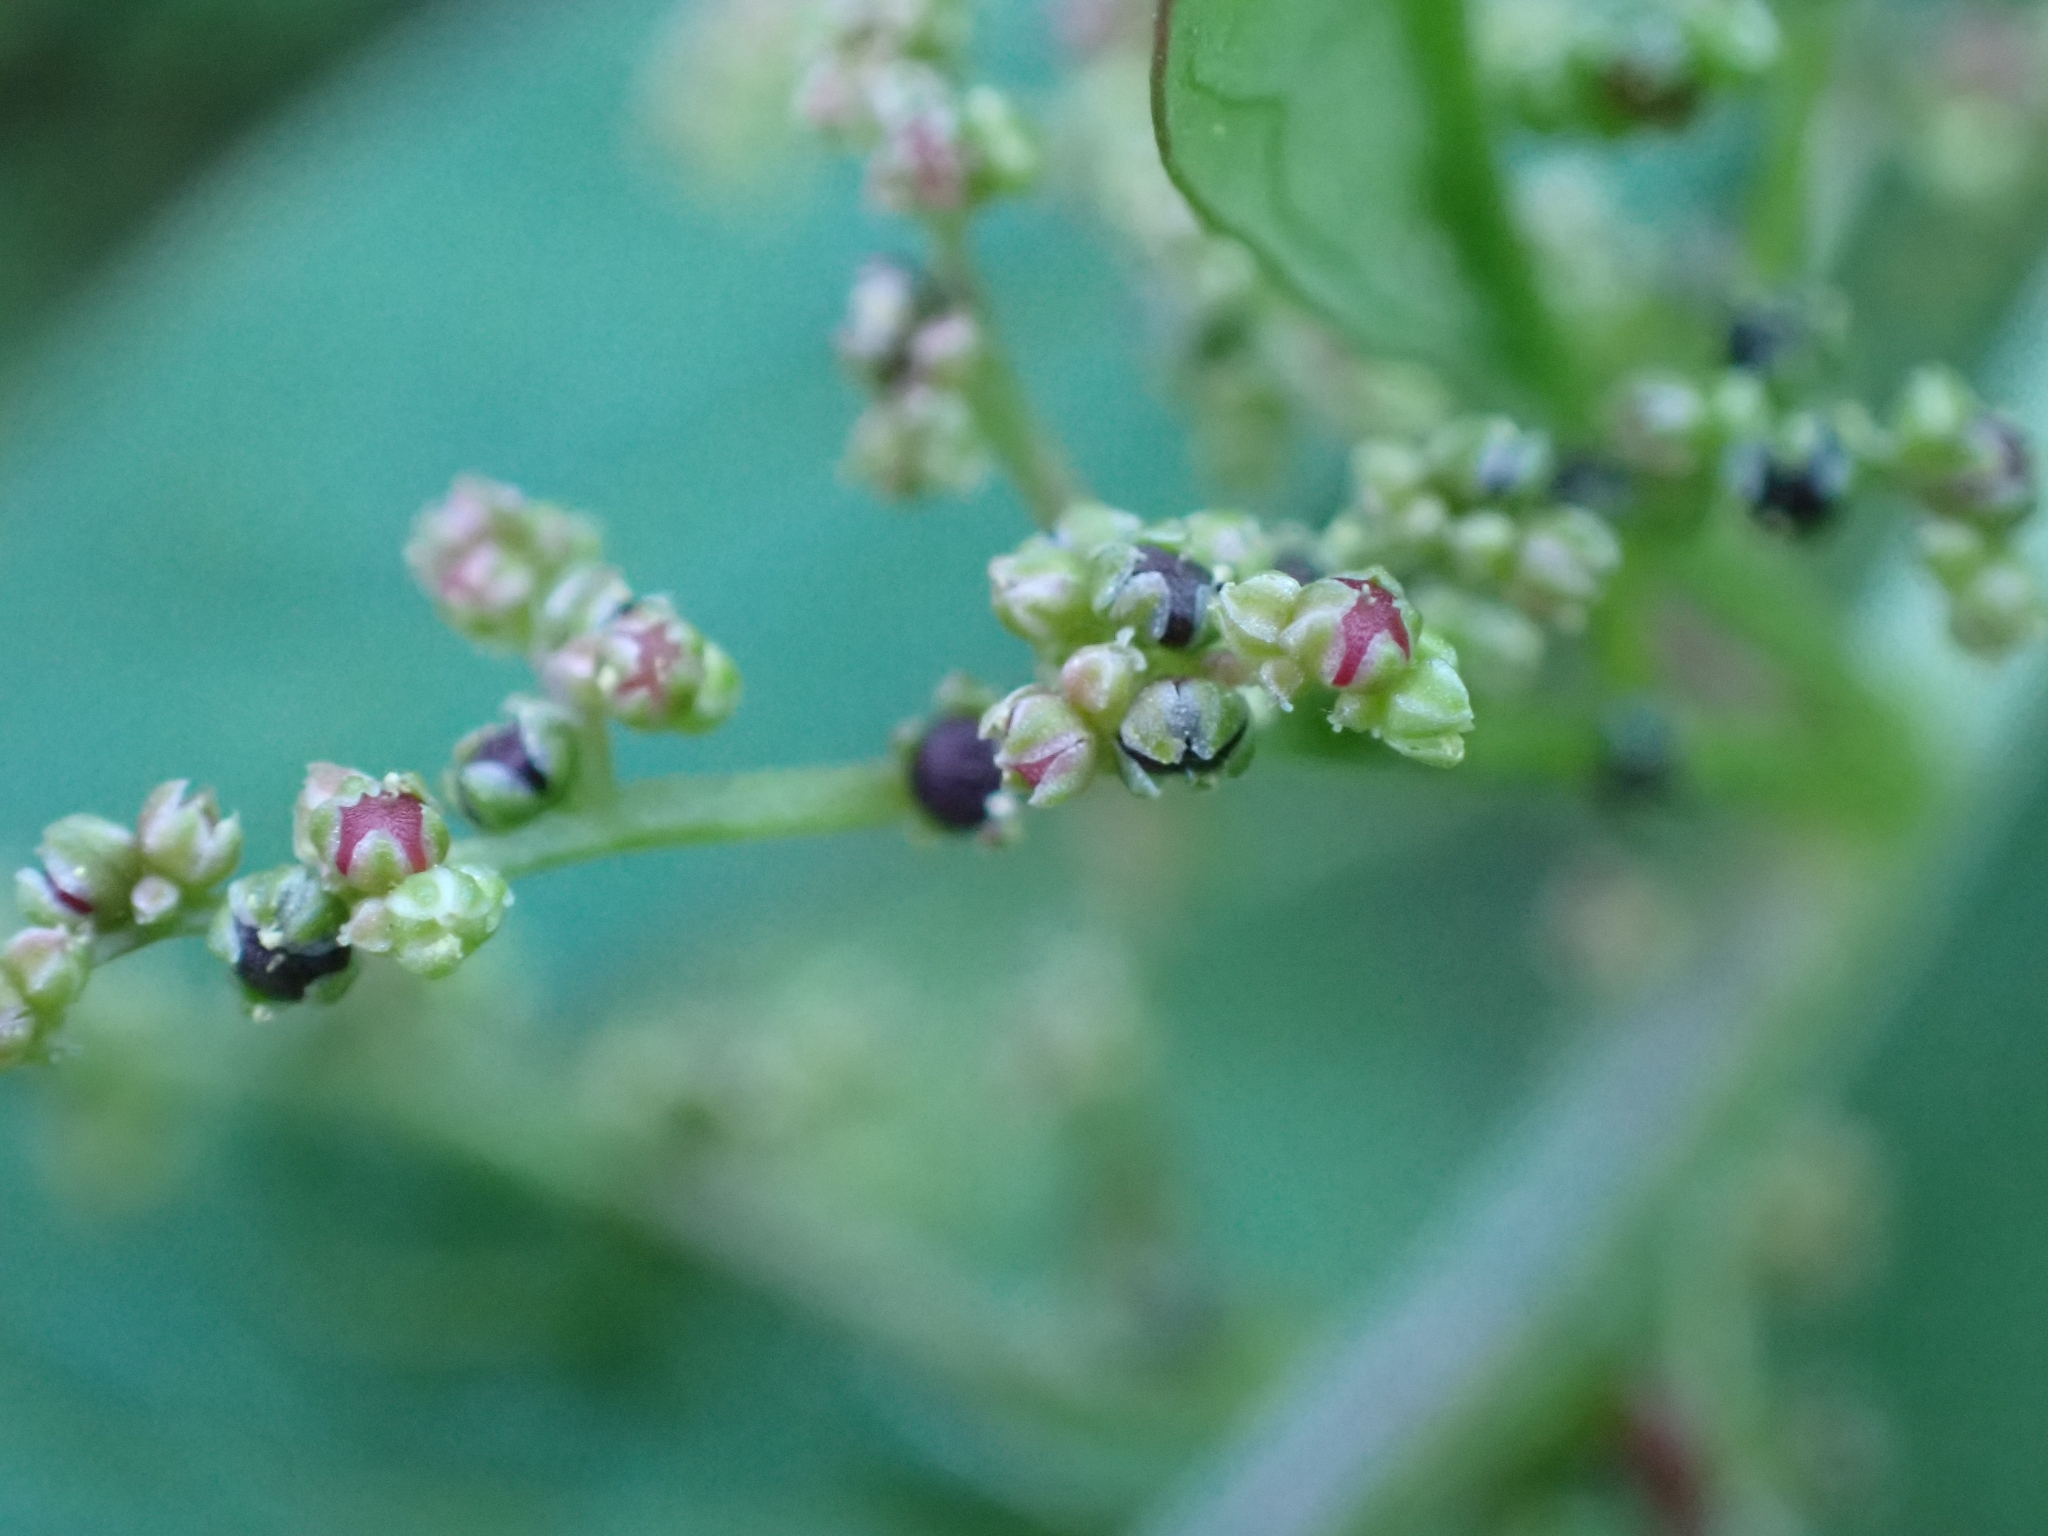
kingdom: Plantae
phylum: Tracheophyta
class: Magnoliopsida
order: Caryophyllales
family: Amaranthaceae
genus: Lipandra
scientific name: Lipandra polysperma
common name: Many-seed goosefoot
